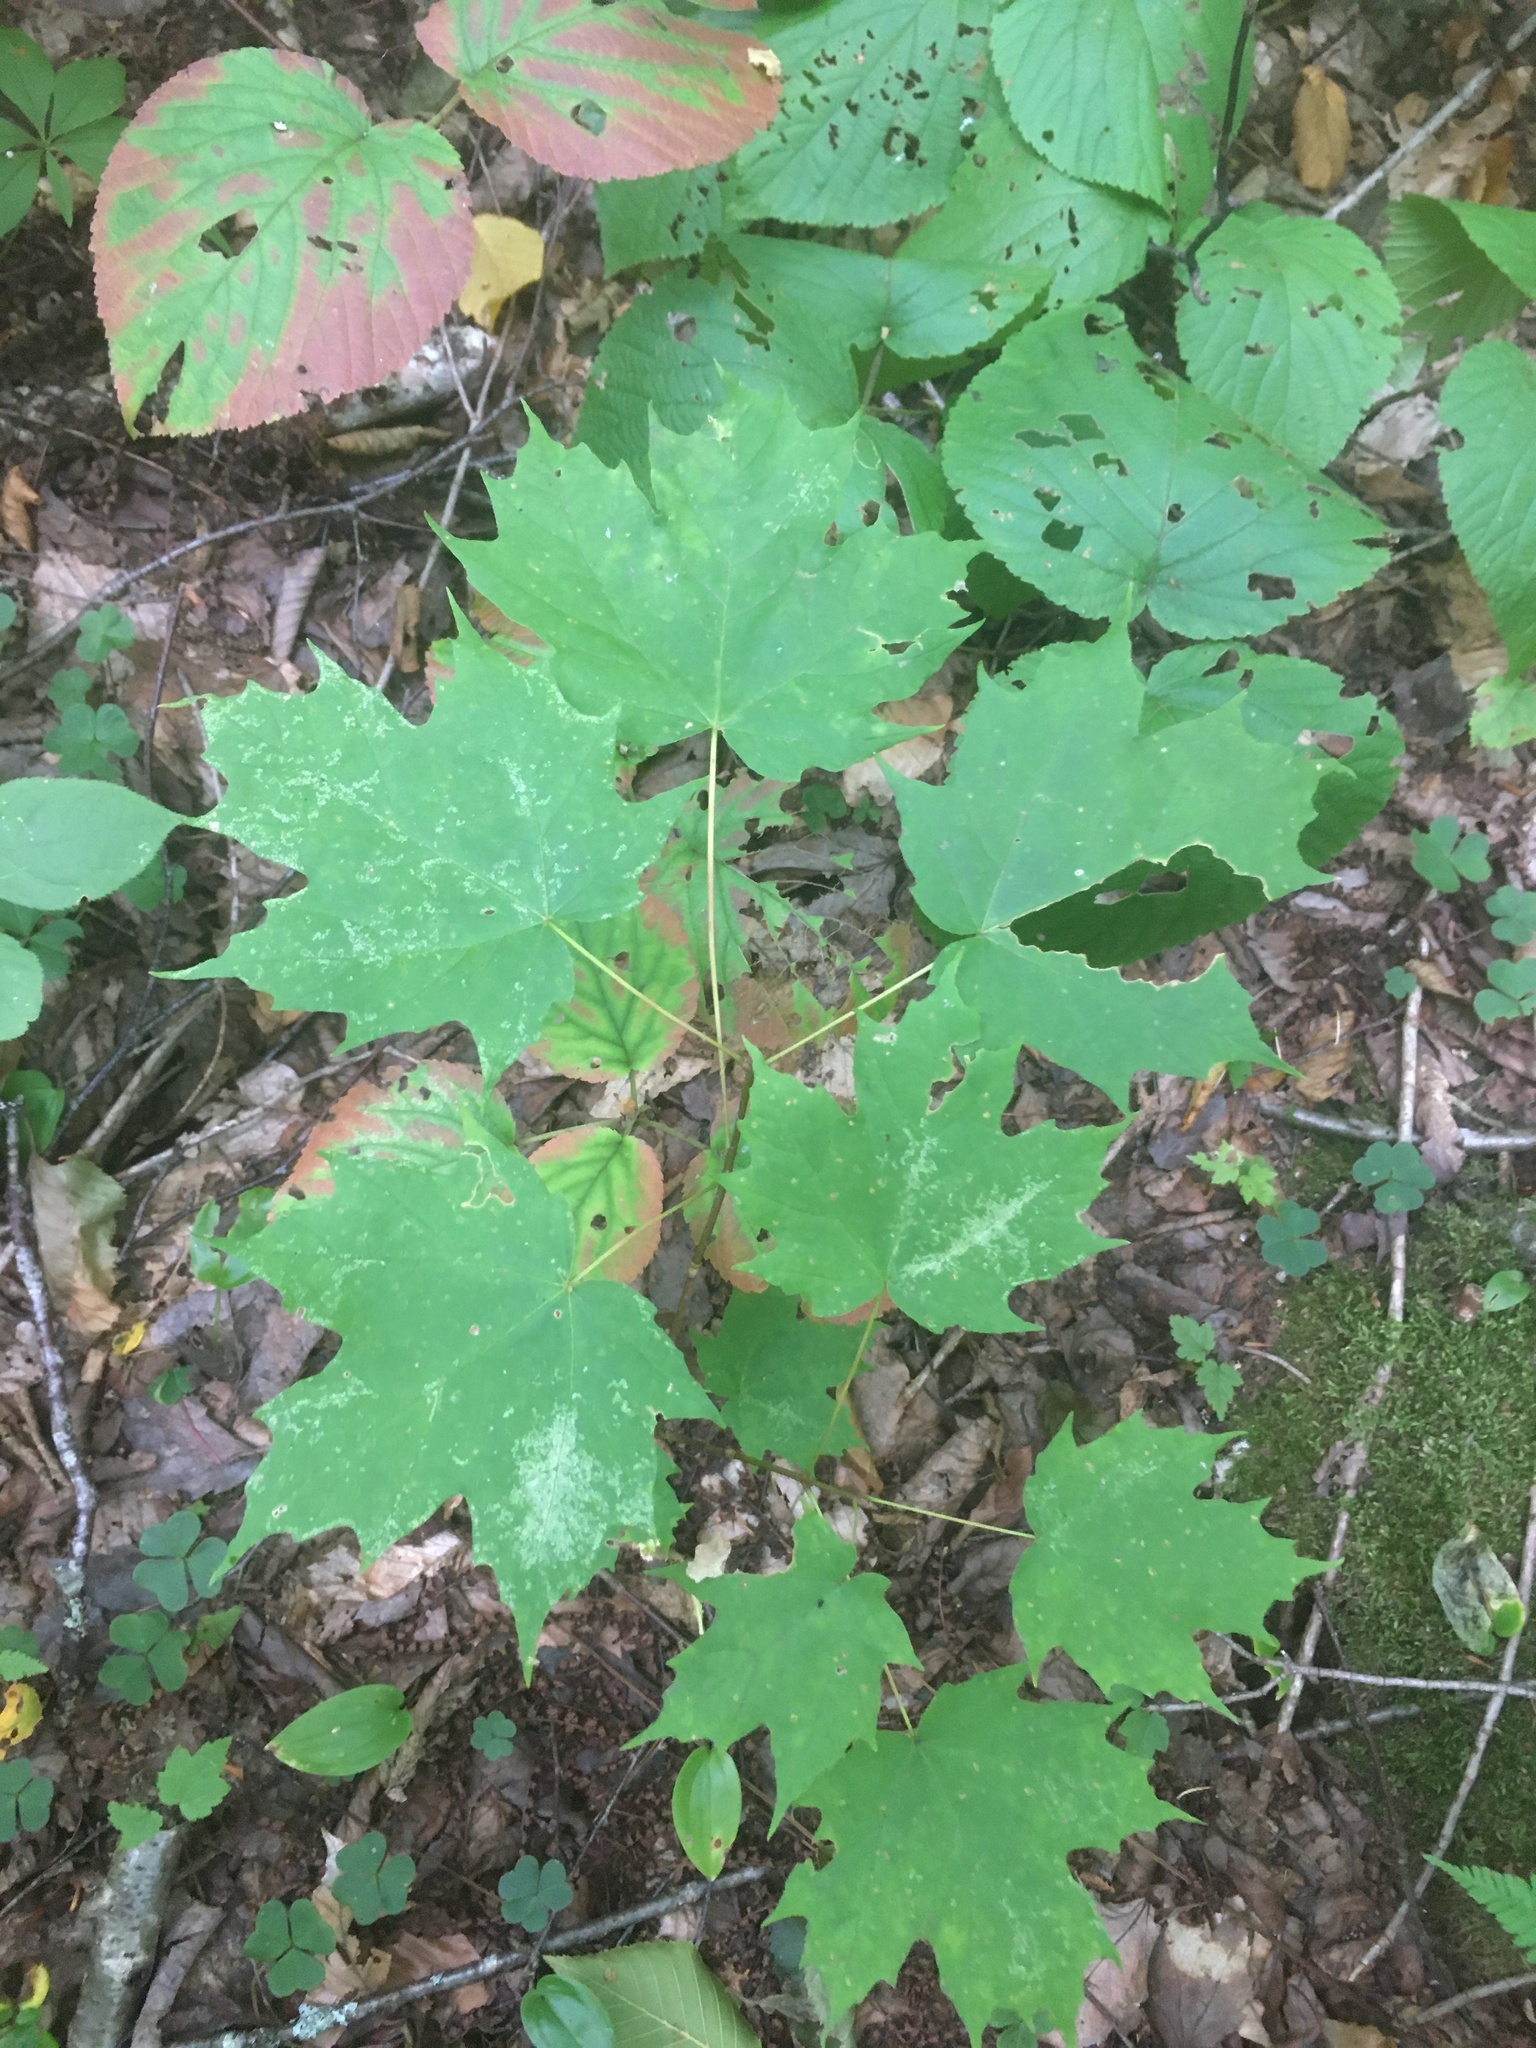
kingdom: Plantae
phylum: Tracheophyta
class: Magnoliopsida
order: Sapindales
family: Sapindaceae
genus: Acer
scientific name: Acer saccharum
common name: Sugar maple
